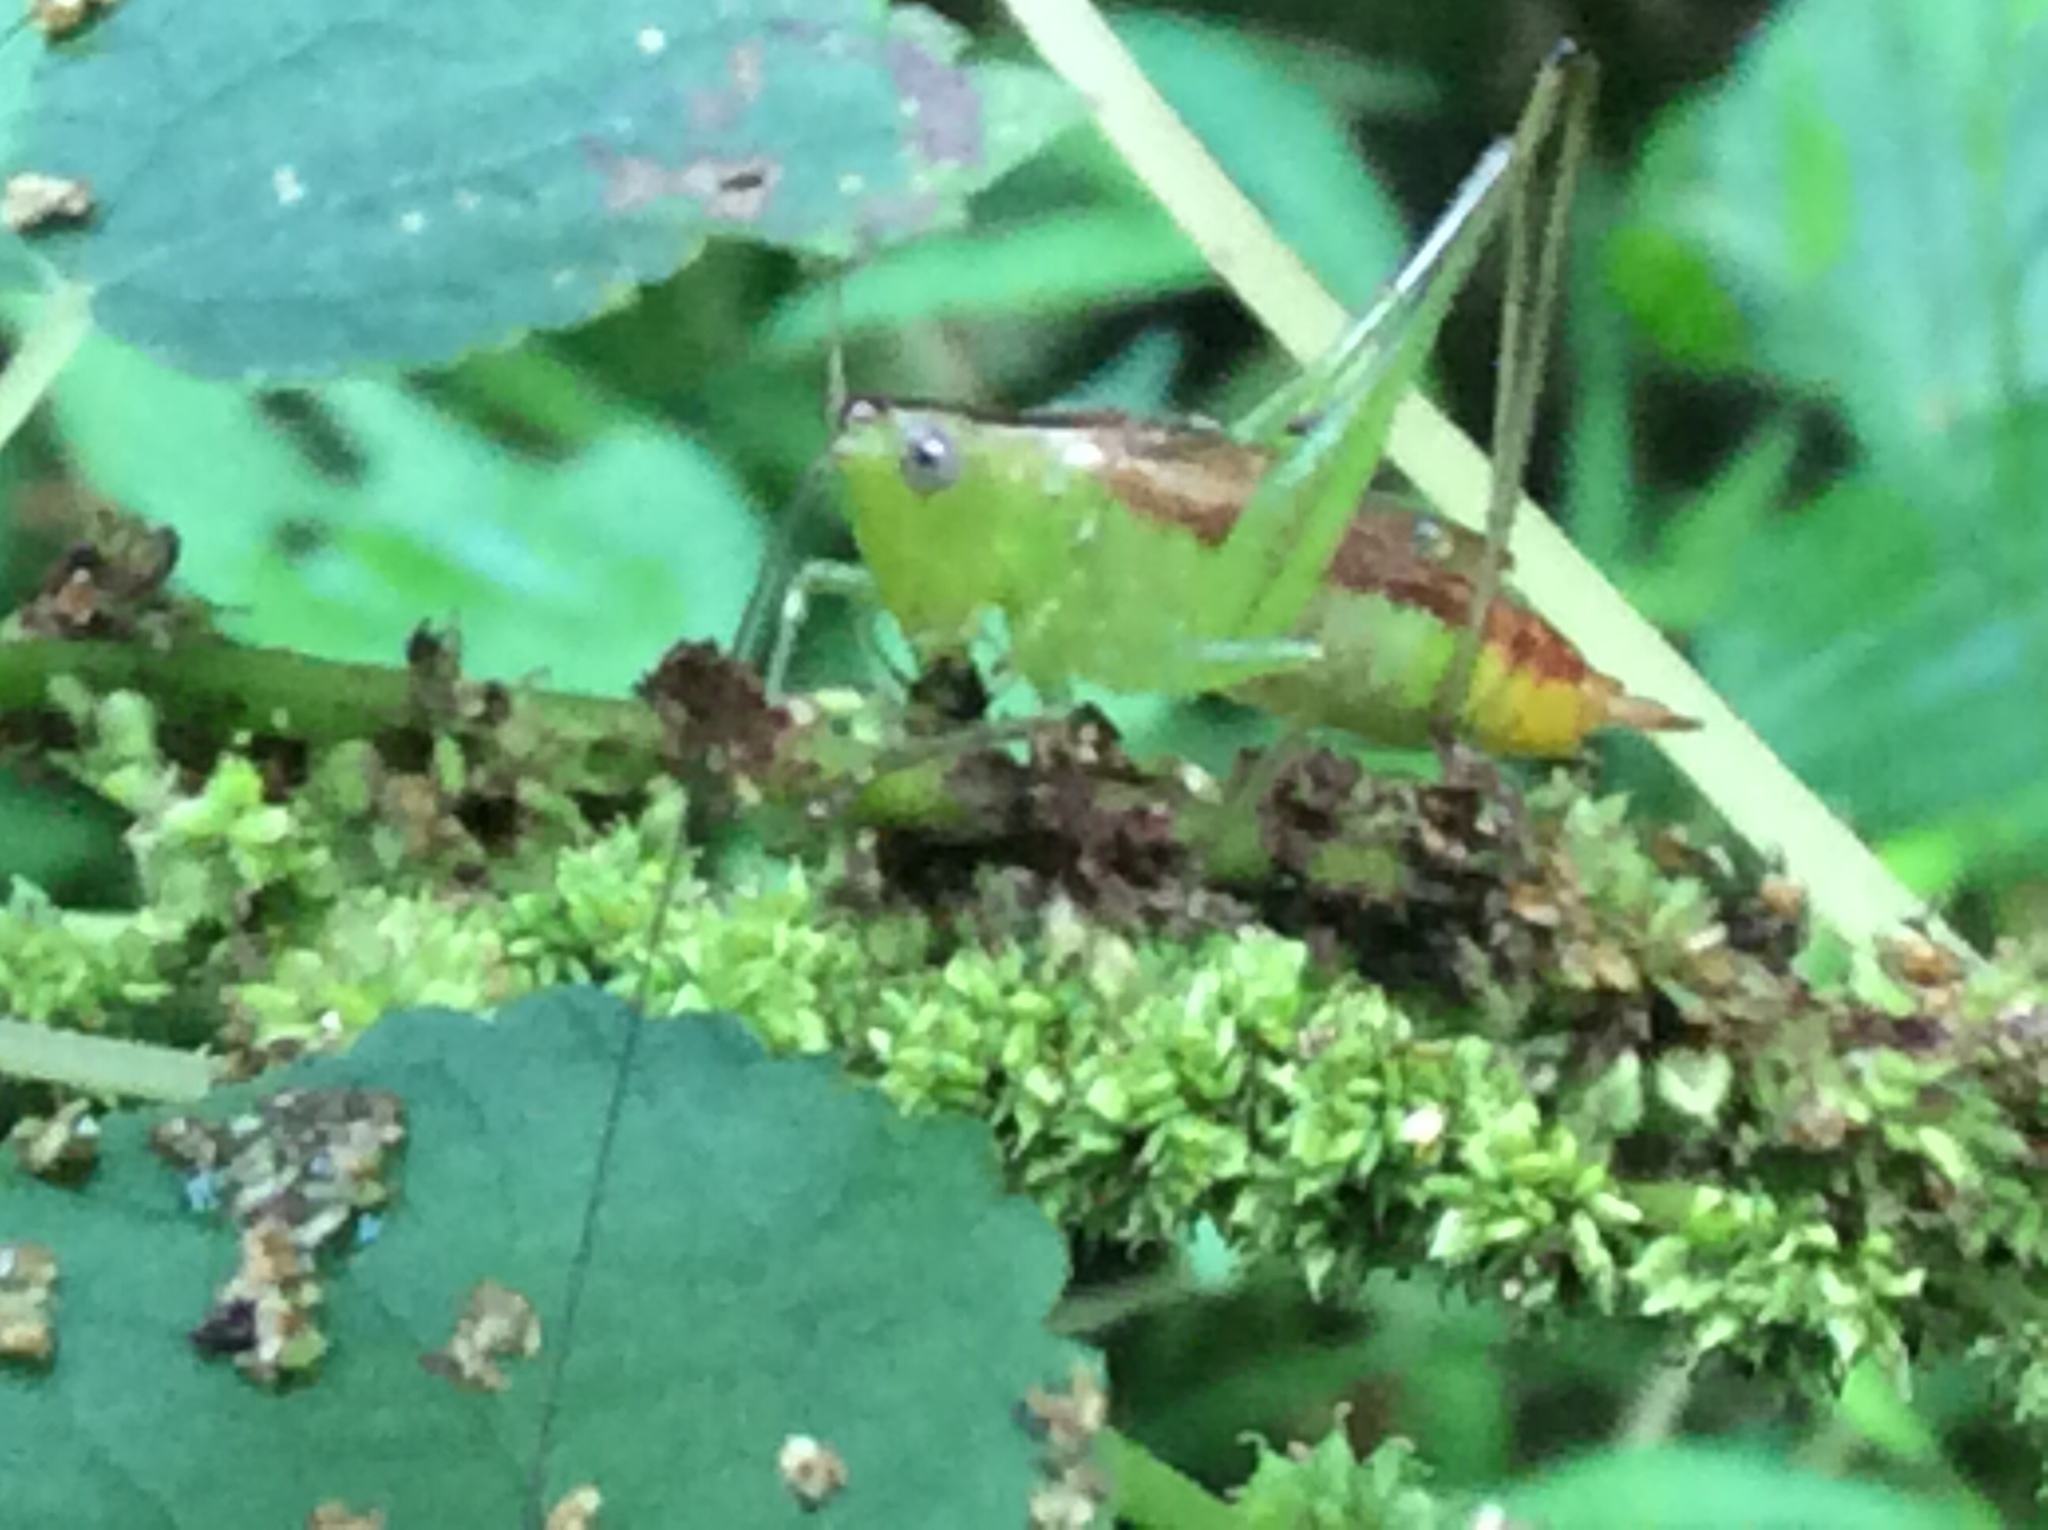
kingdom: Animalia
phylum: Arthropoda
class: Insecta
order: Orthoptera
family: Tettigoniidae
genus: Conocephalus
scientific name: Conocephalus brevipennis
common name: Short-winged meadow katydid
